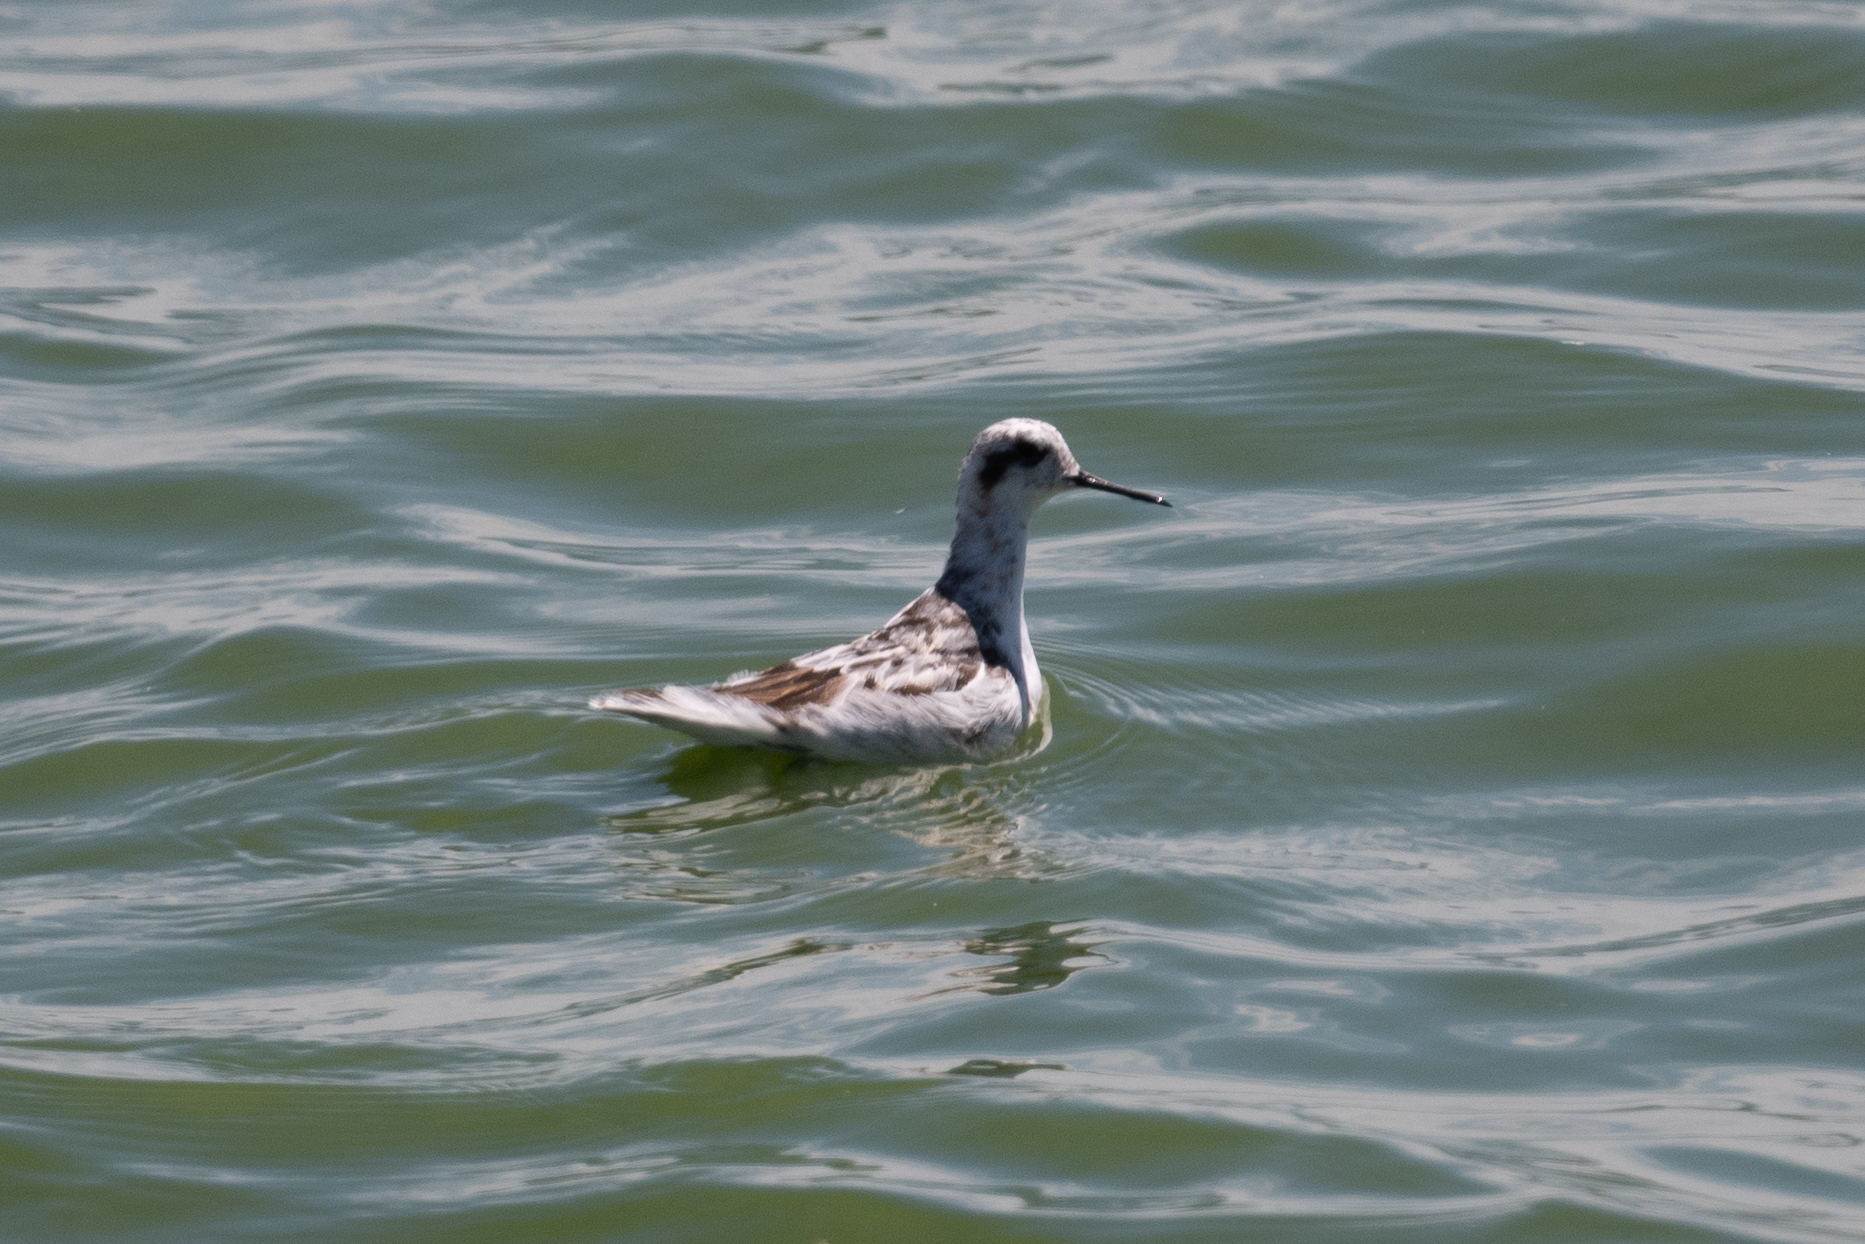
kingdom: Animalia
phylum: Chordata
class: Aves
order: Charadriiformes
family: Scolopacidae
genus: Phalaropus
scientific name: Phalaropus lobatus
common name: Red-necked phalarope
